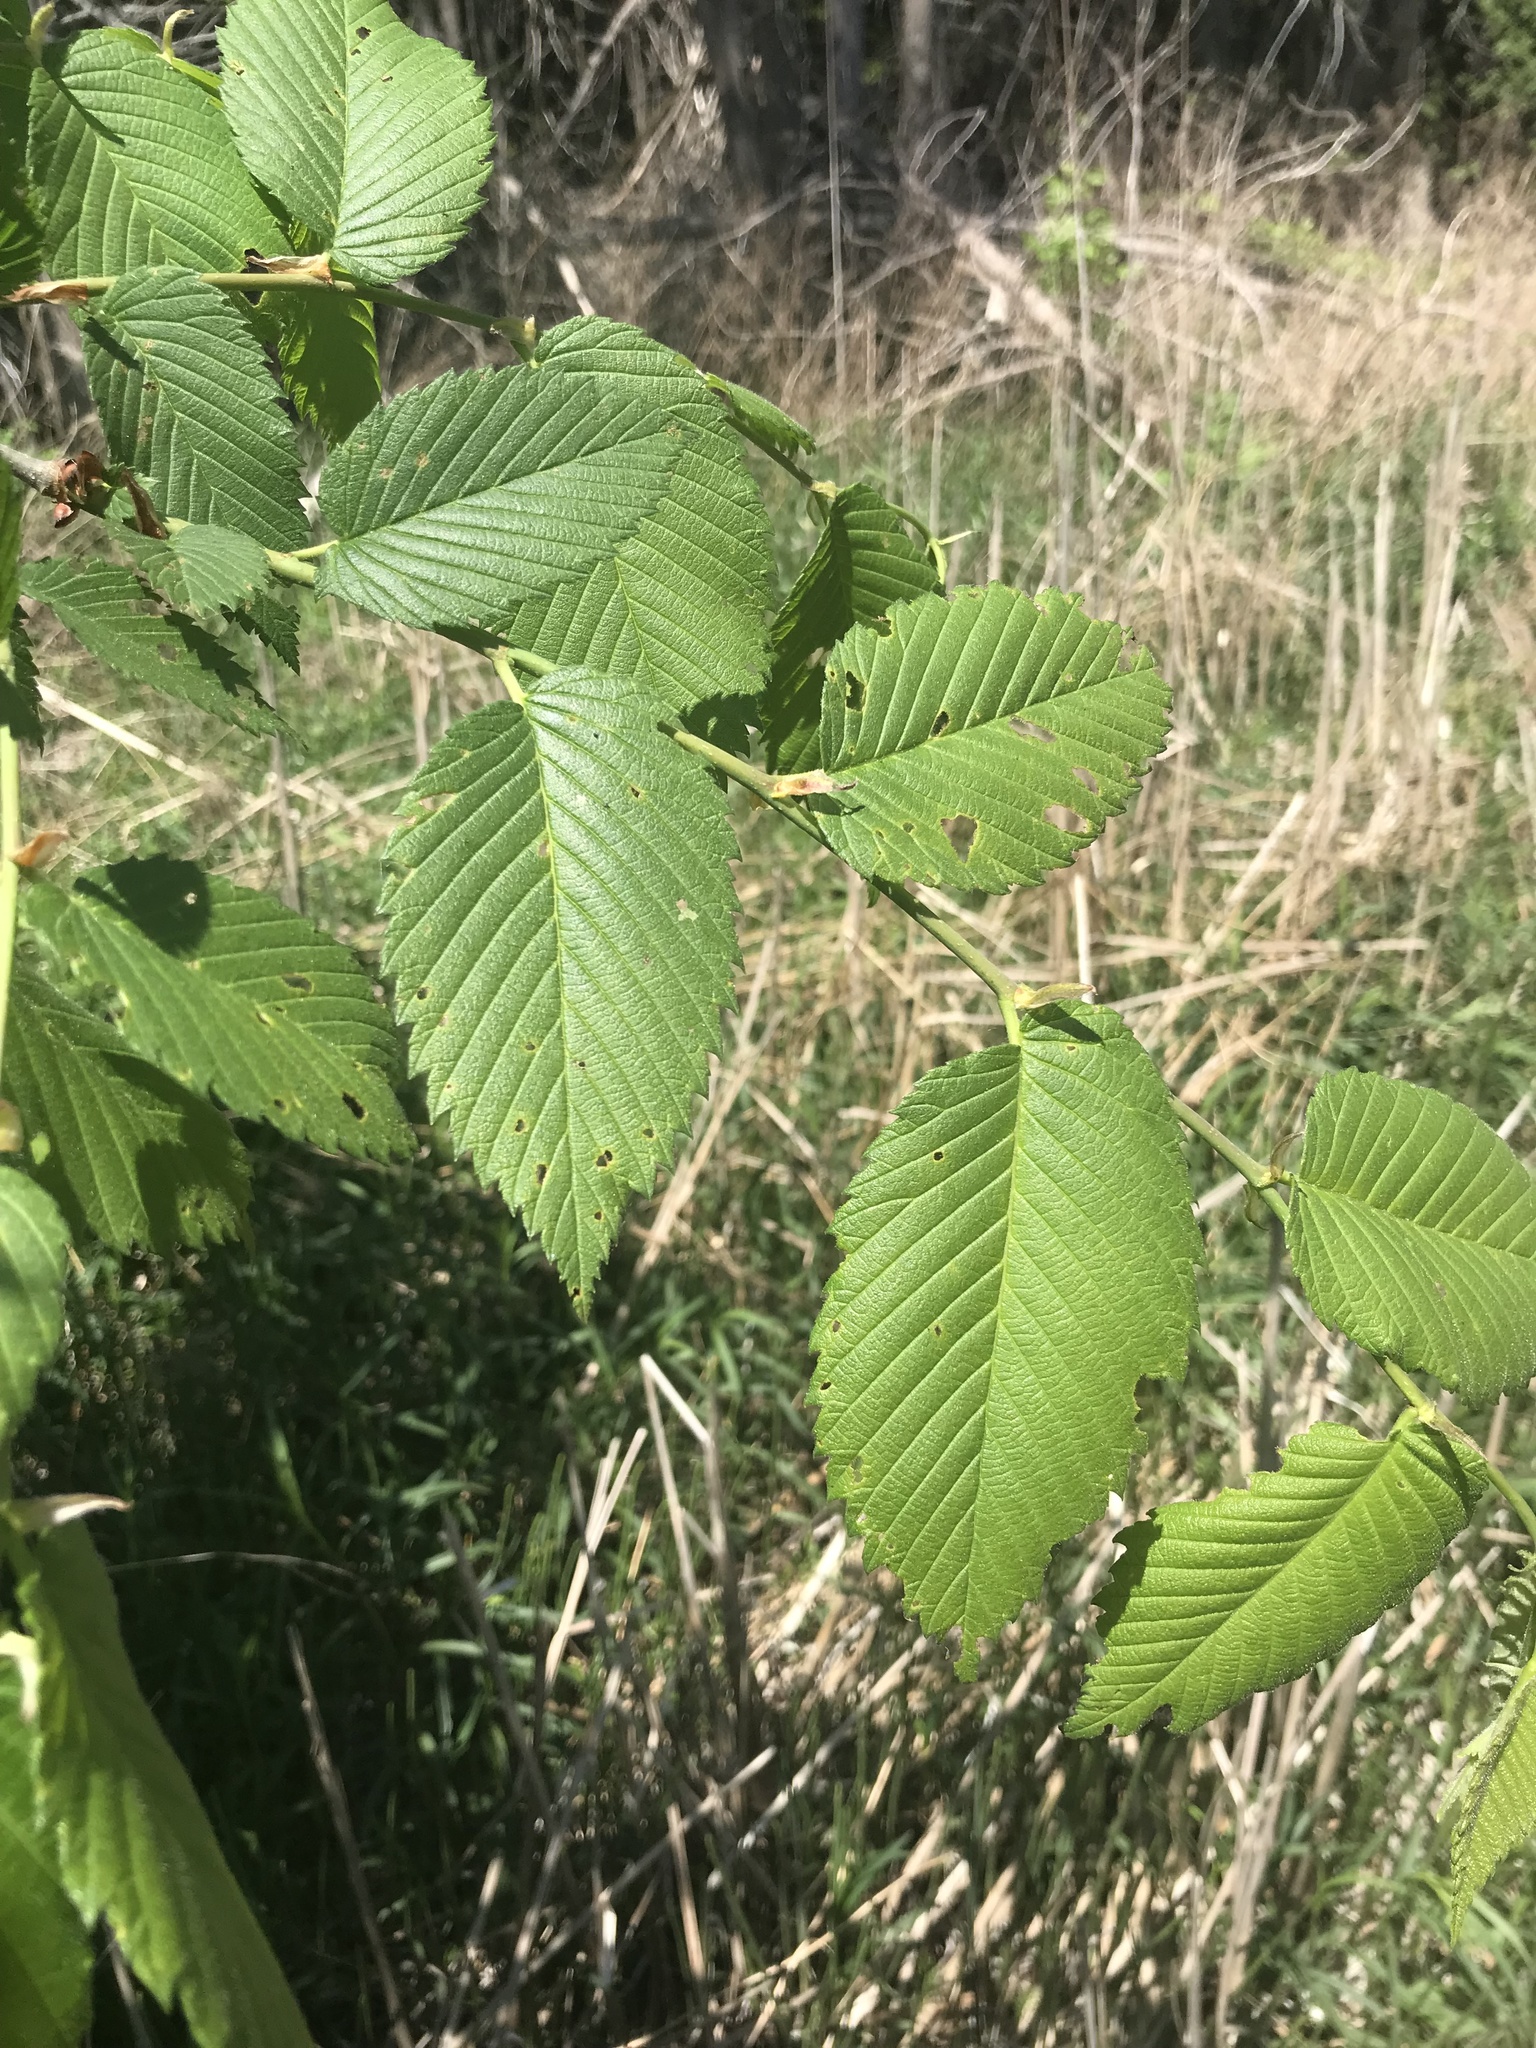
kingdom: Plantae
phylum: Tracheophyta
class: Magnoliopsida
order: Rosales
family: Ulmaceae
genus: Ulmus
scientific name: Ulmus americana
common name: American elm
